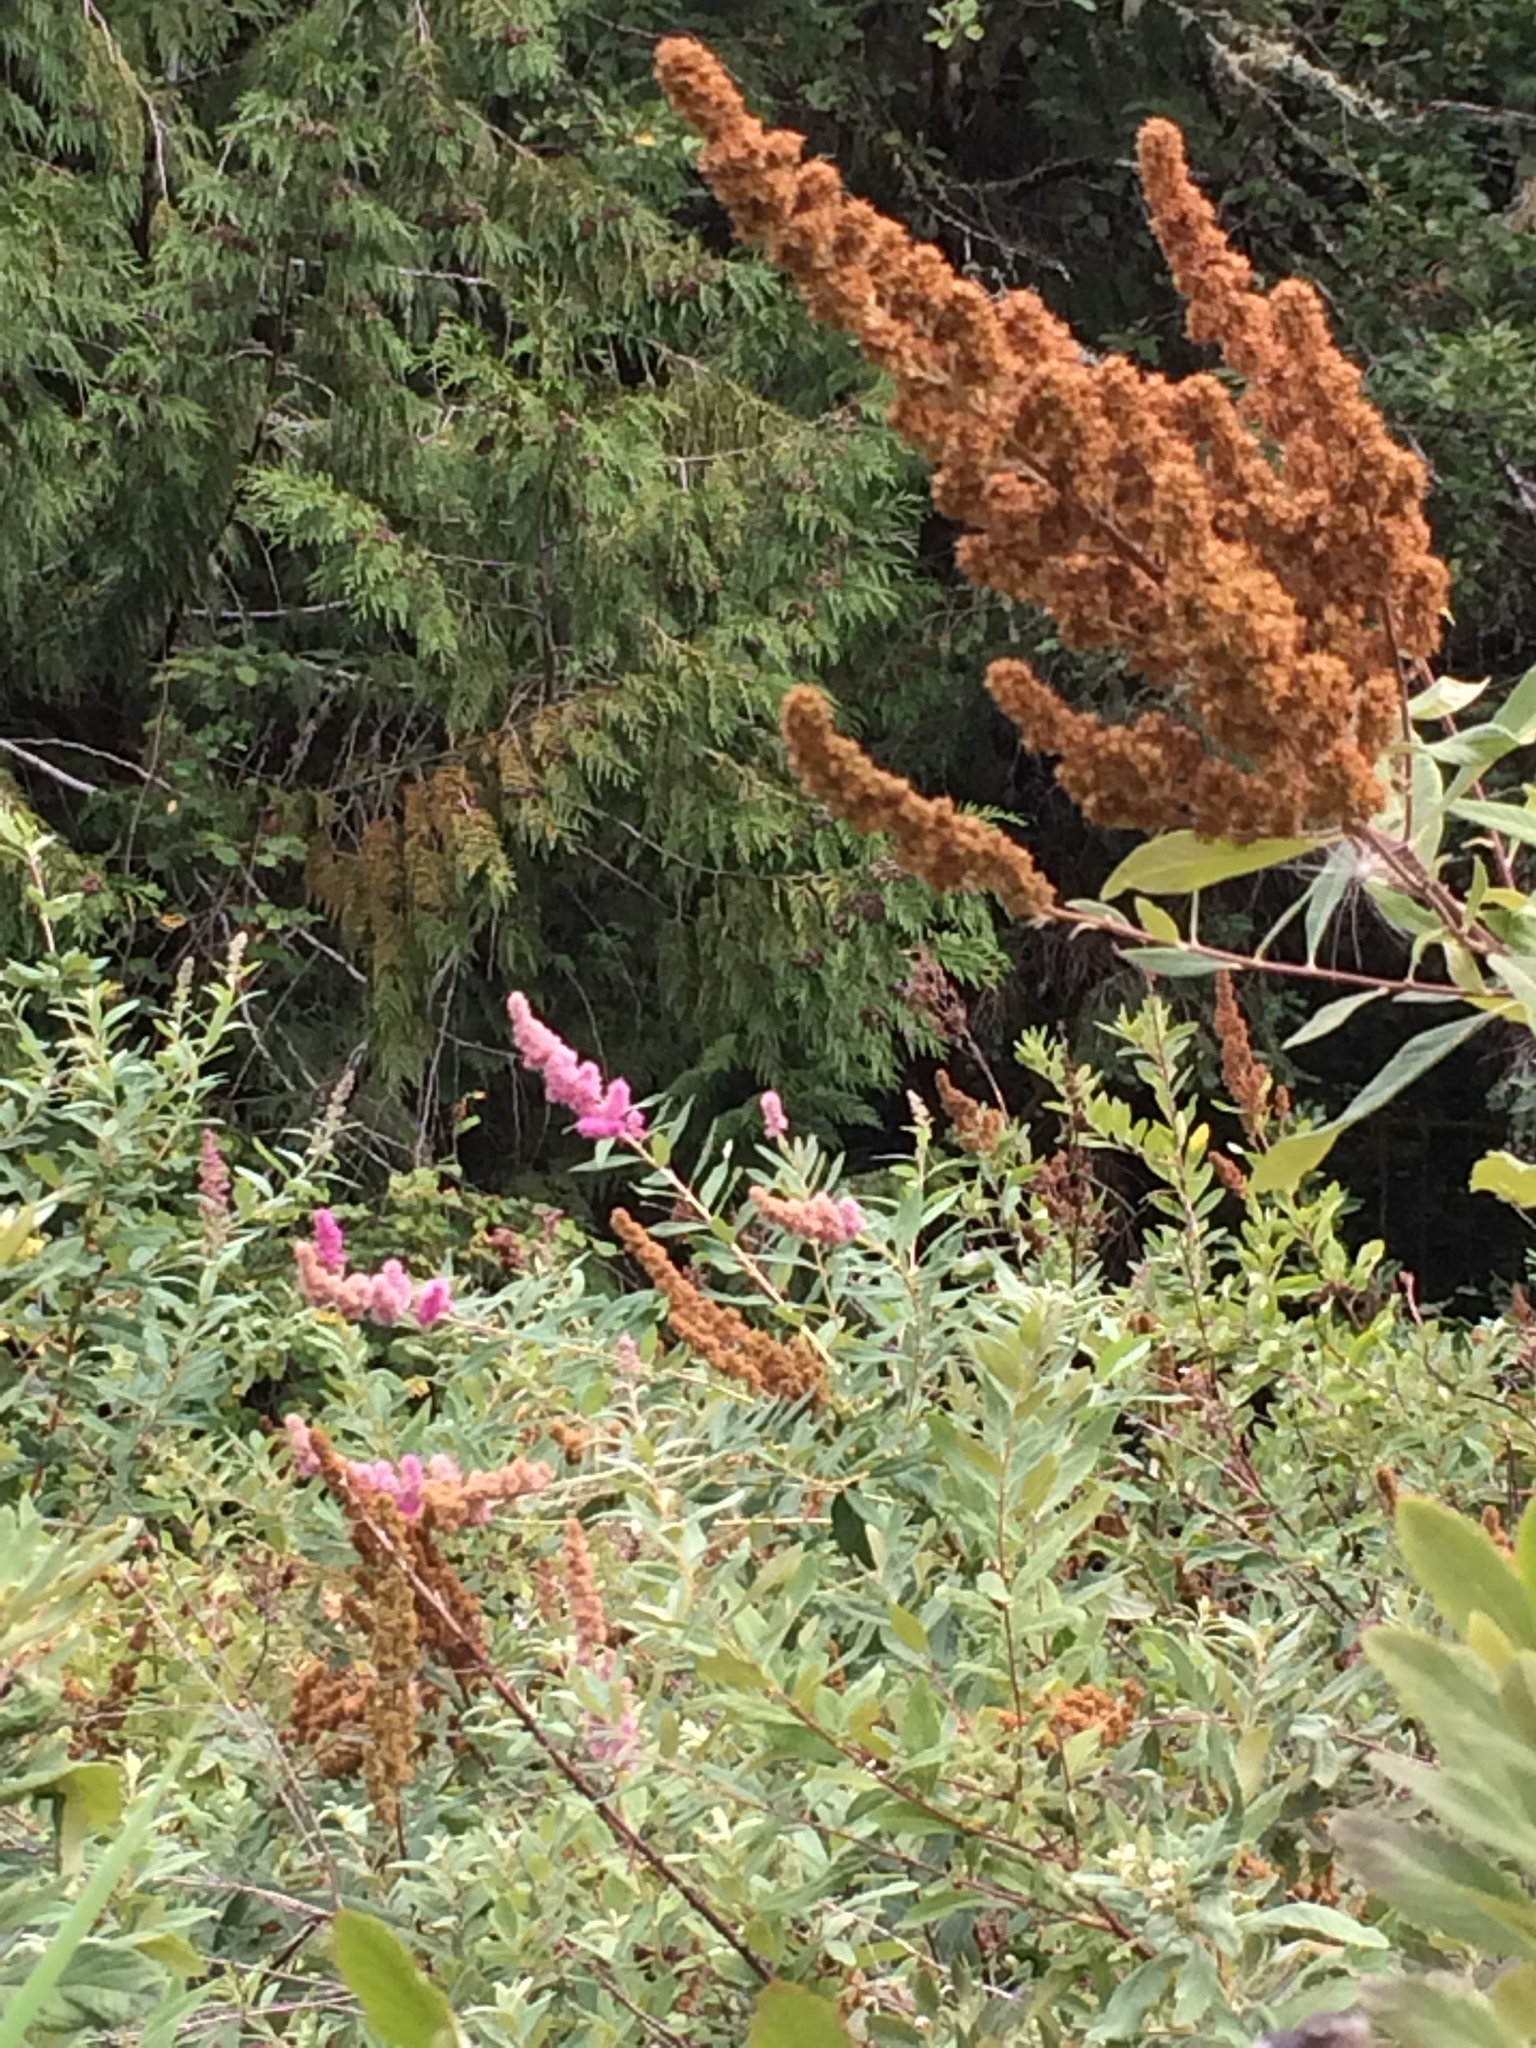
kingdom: Plantae
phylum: Tracheophyta
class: Magnoliopsida
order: Rosales
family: Rosaceae
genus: Spiraea
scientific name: Spiraea douglasii
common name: Steeplebush
